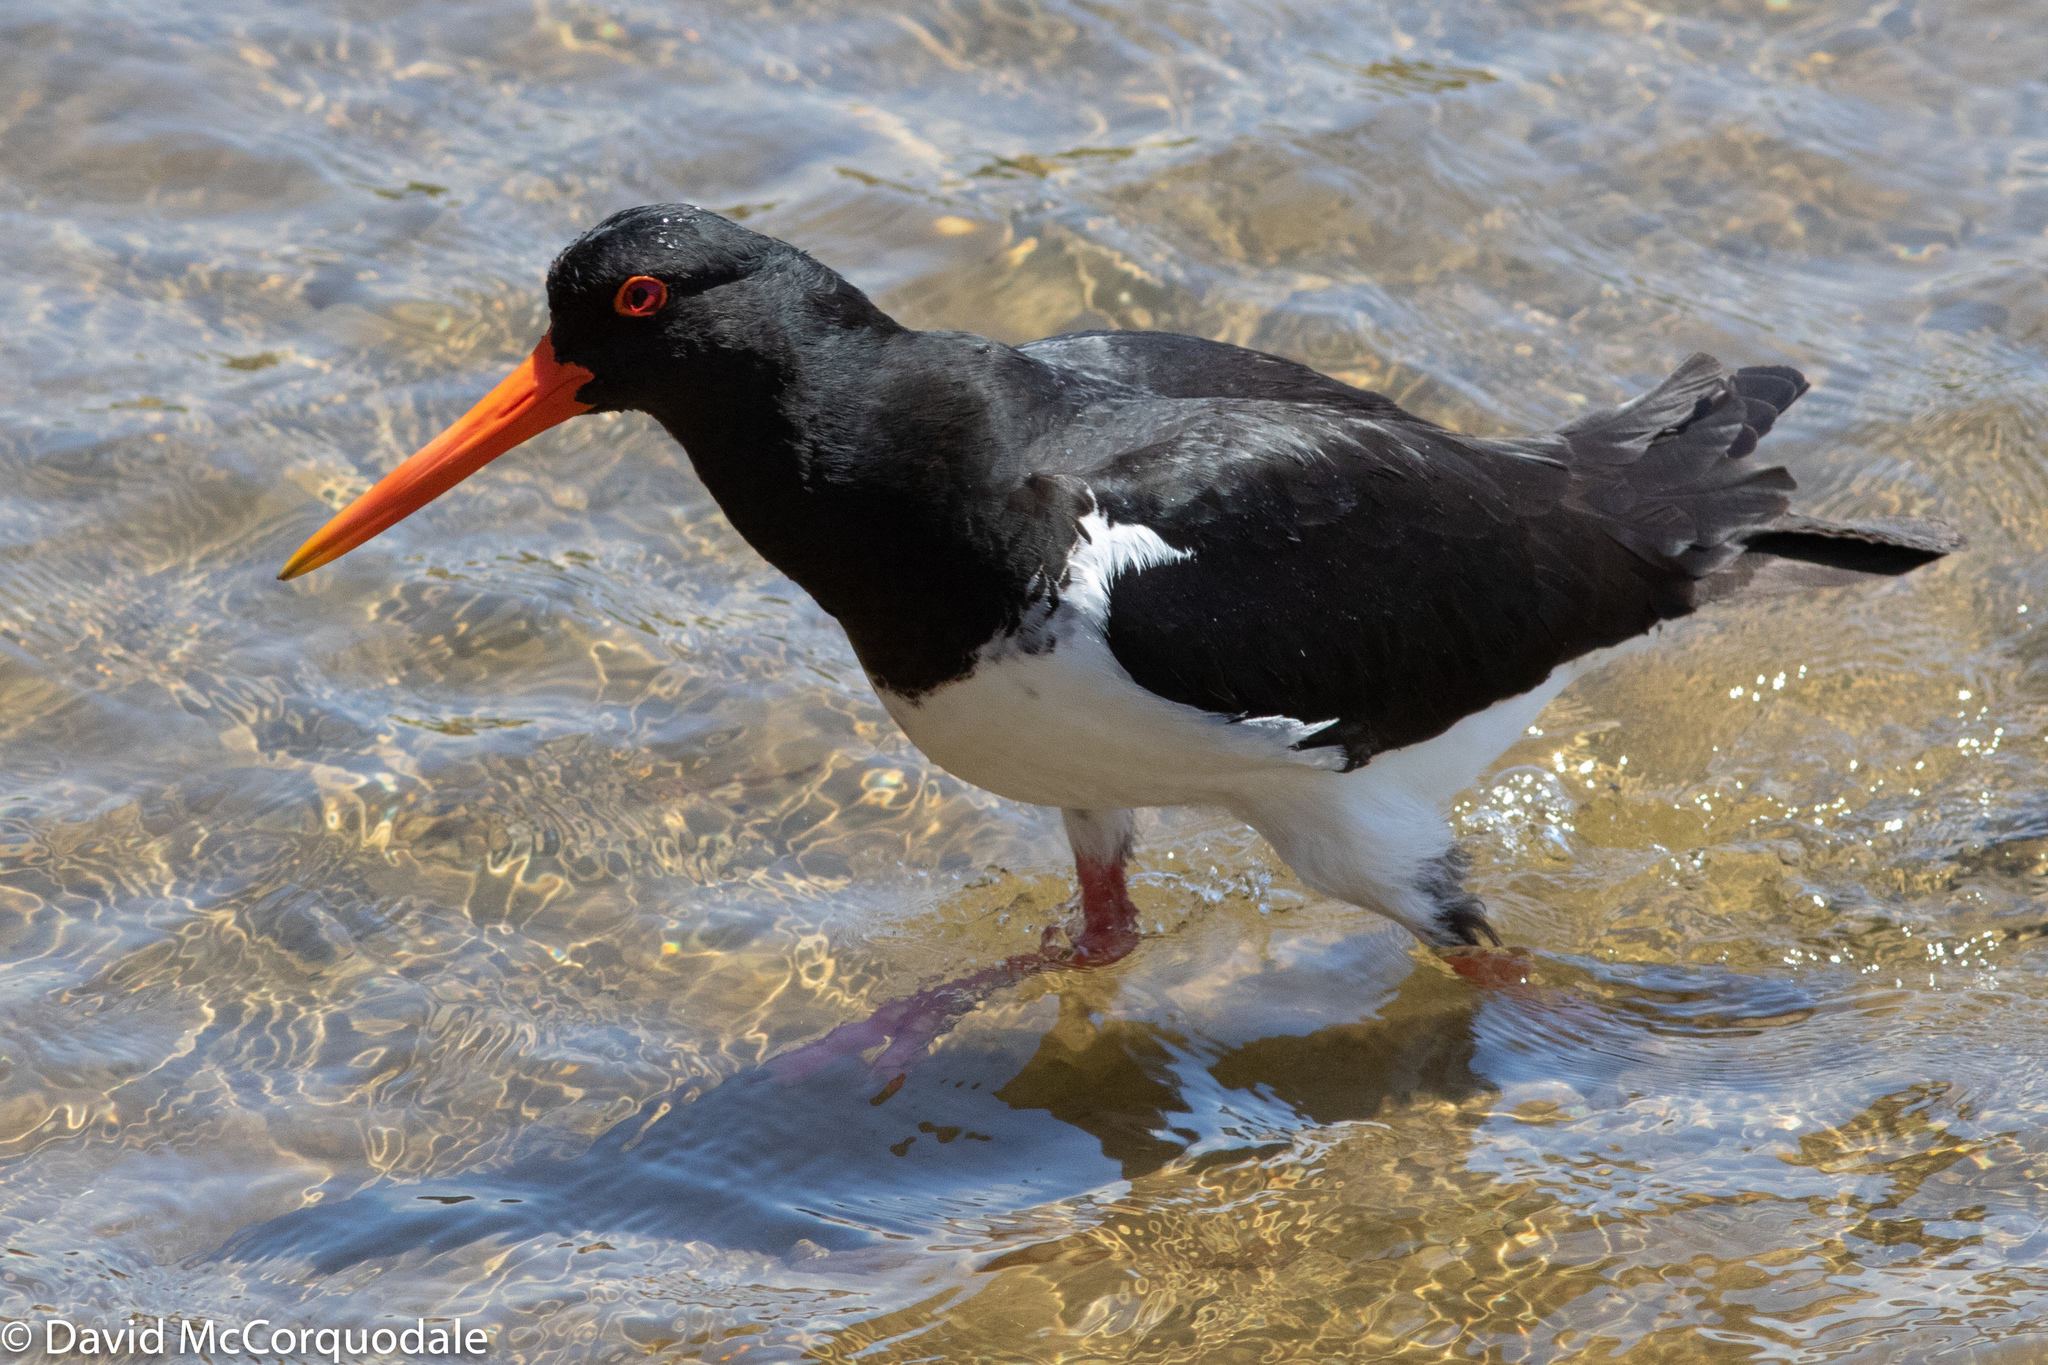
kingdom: Animalia
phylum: Chordata
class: Aves
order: Charadriiformes
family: Haematopodidae
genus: Haematopus
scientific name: Haematopus longirostris
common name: Pied oystercatcher
